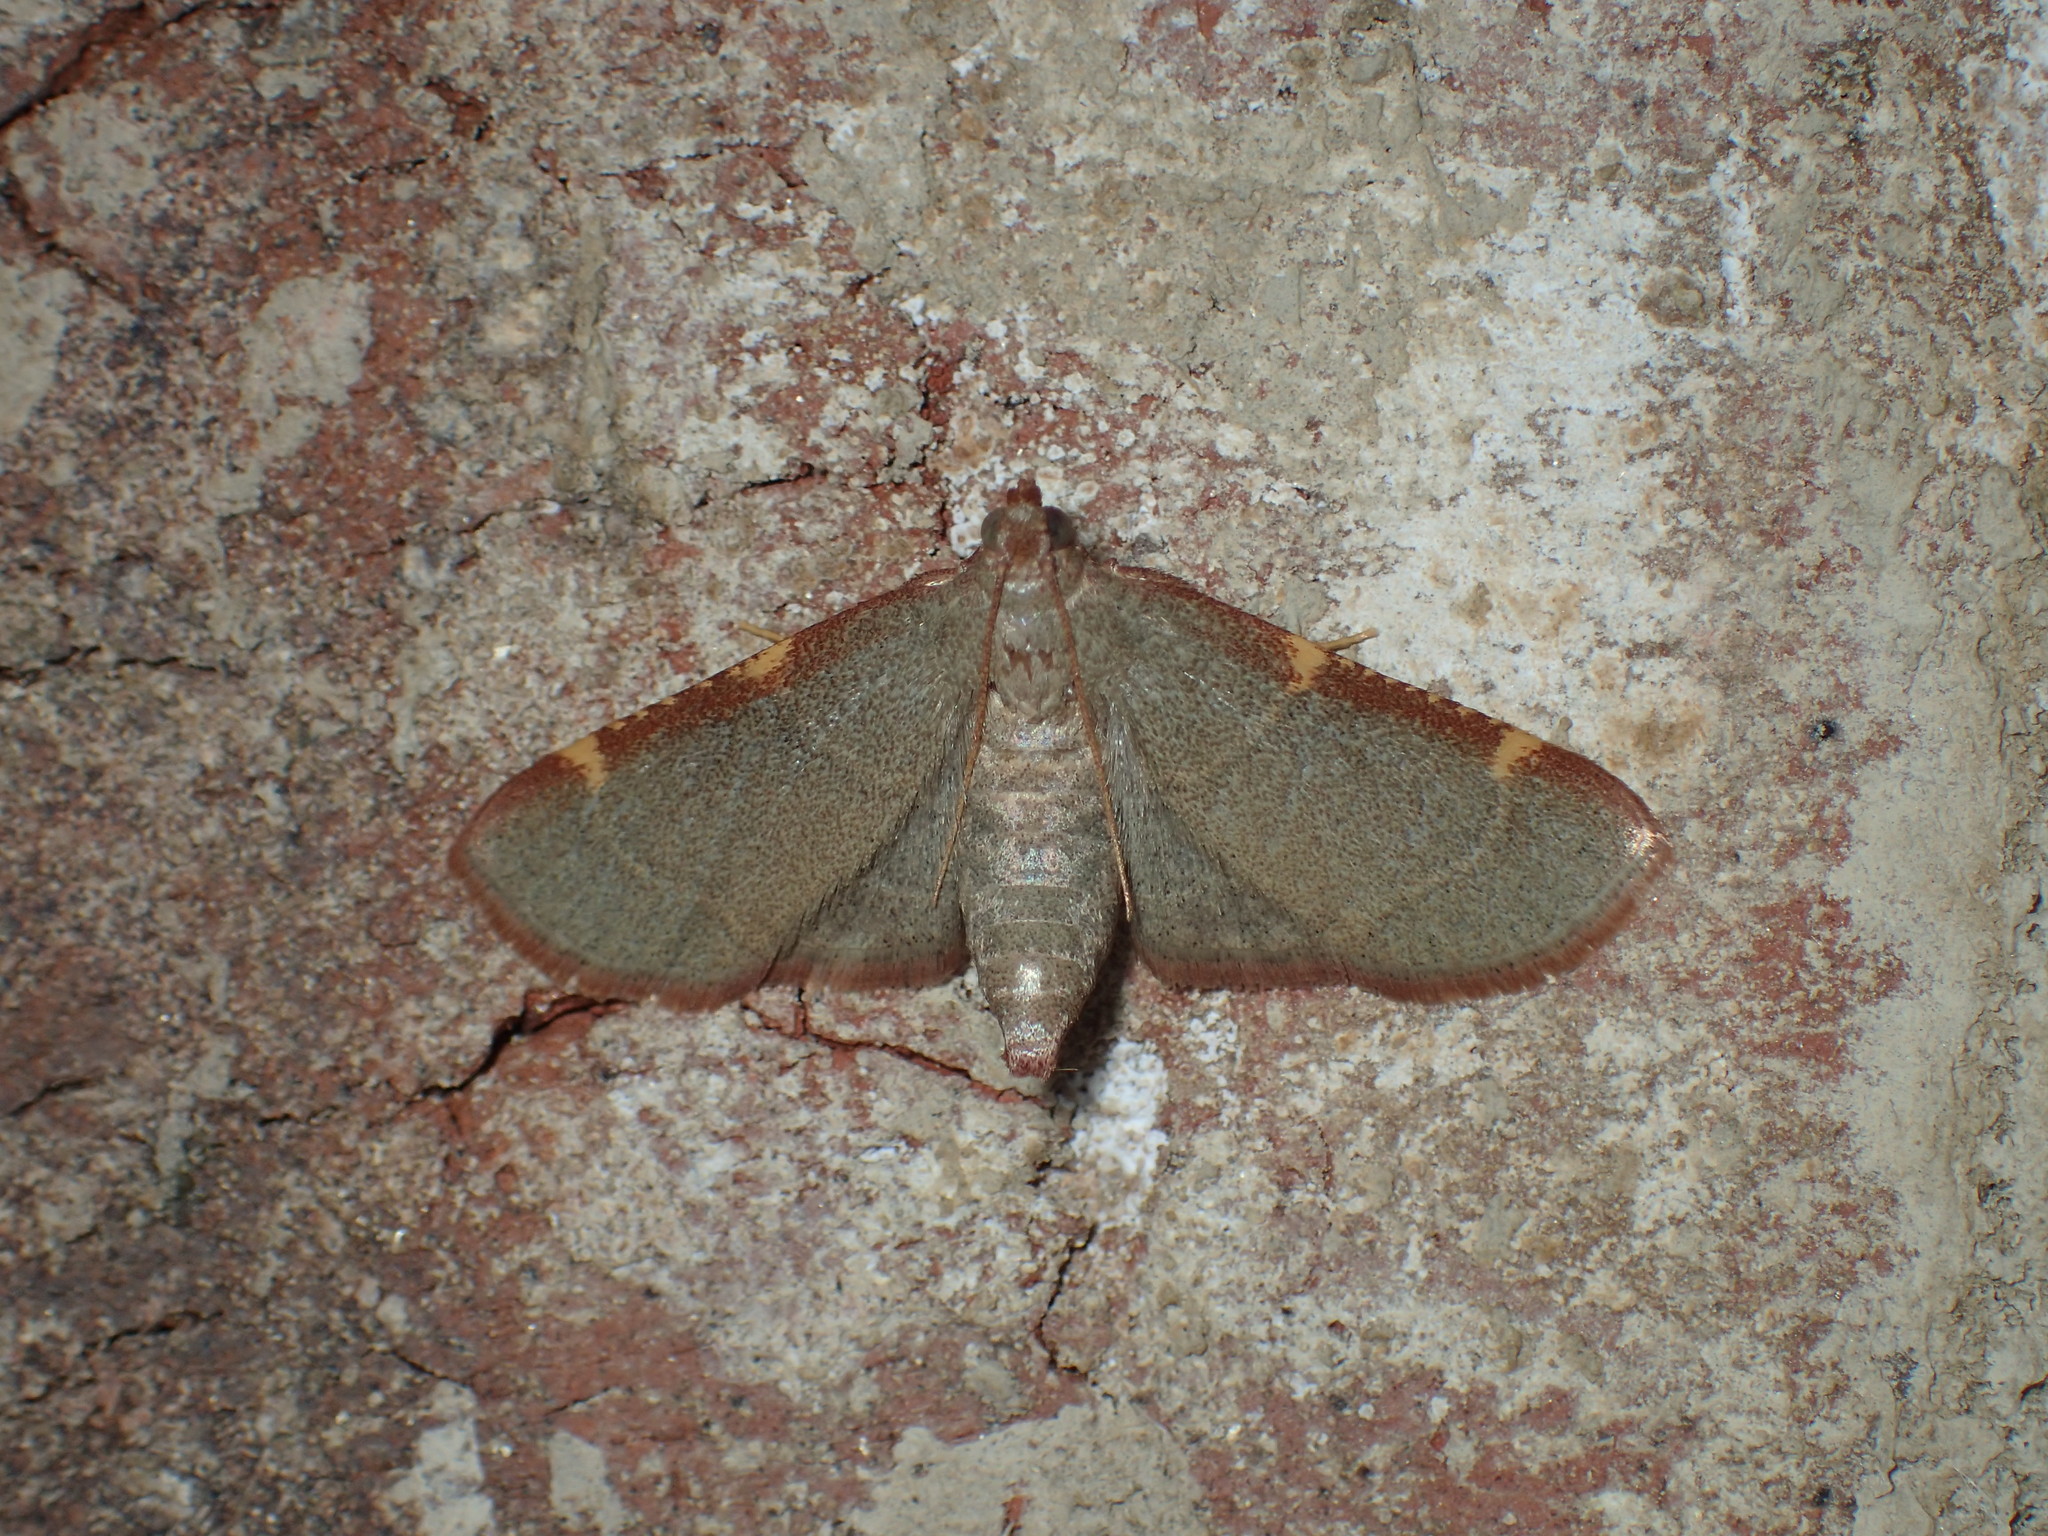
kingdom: Animalia
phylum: Arthropoda
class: Insecta
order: Lepidoptera
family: Pyralidae
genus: Hypsopygia
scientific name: Hypsopygia binodulalis
